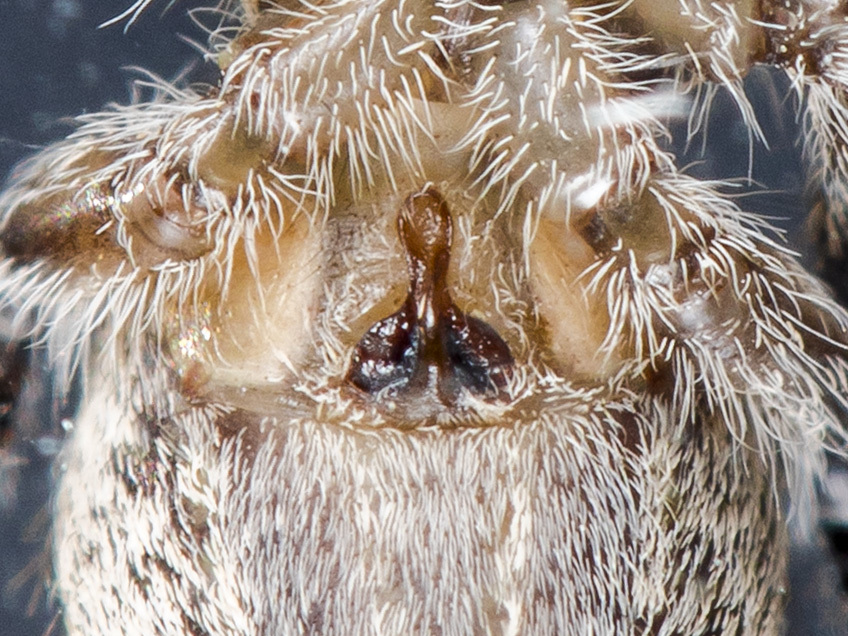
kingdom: Animalia
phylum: Arthropoda
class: Arachnida
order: Araneae
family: Salticidae
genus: Pellenes
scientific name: Pellenes sibiricus
